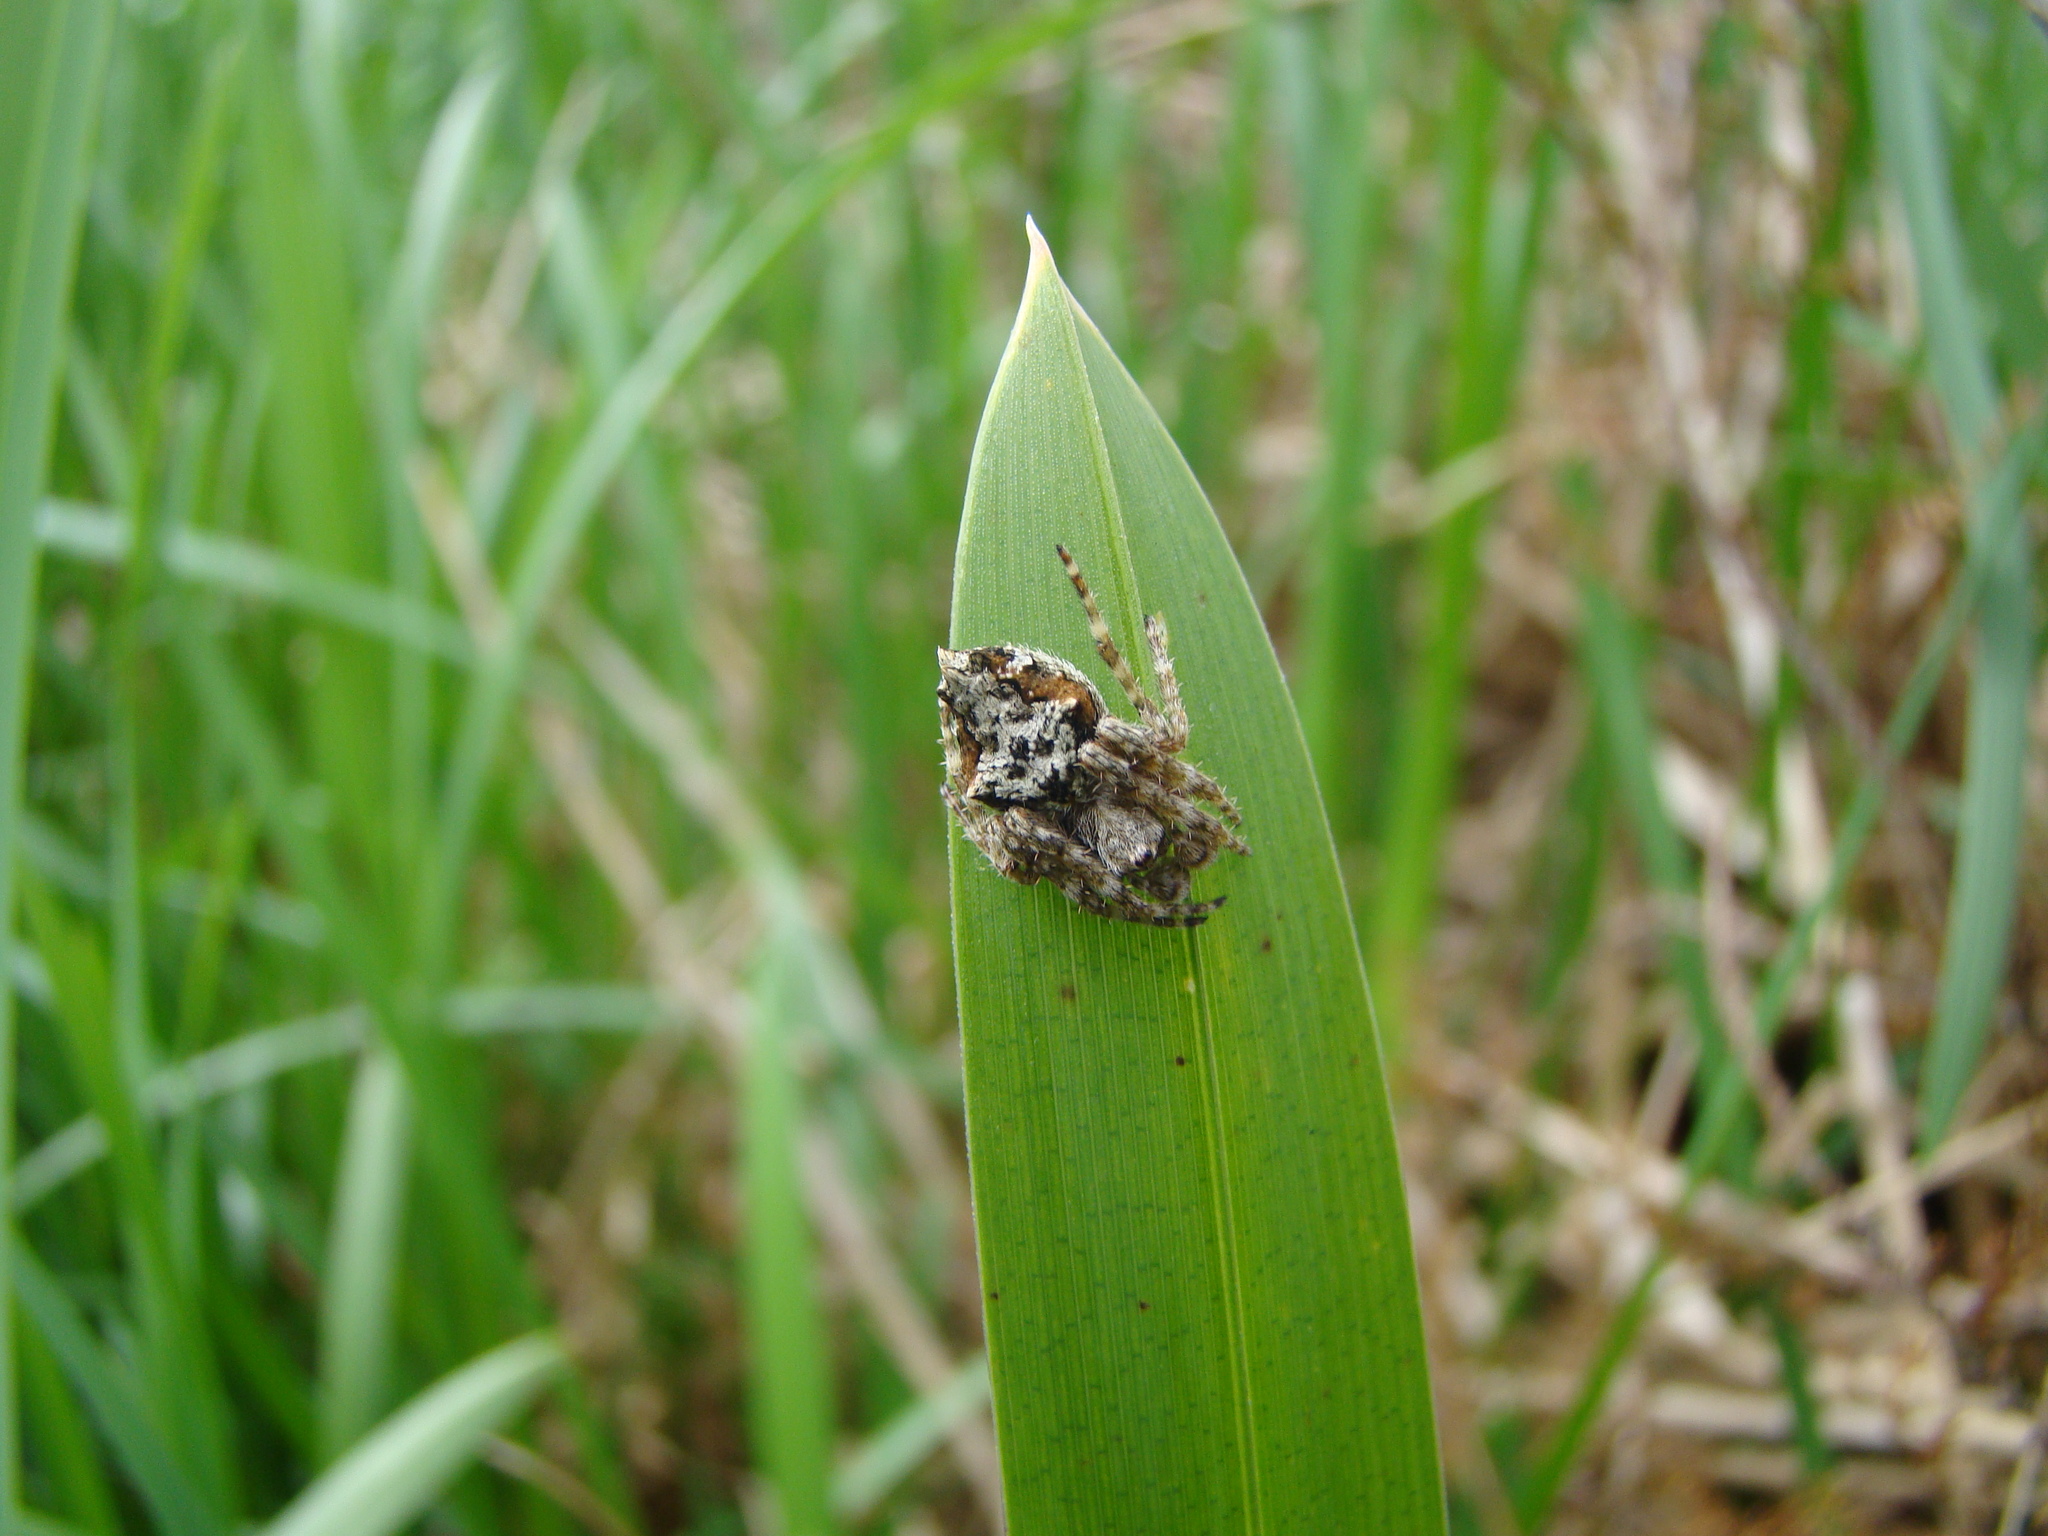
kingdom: Animalia
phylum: Arthropoda
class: Arachnida
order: Araneae
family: Araneidae
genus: Eriophora
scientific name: Eriophora pustulosa
